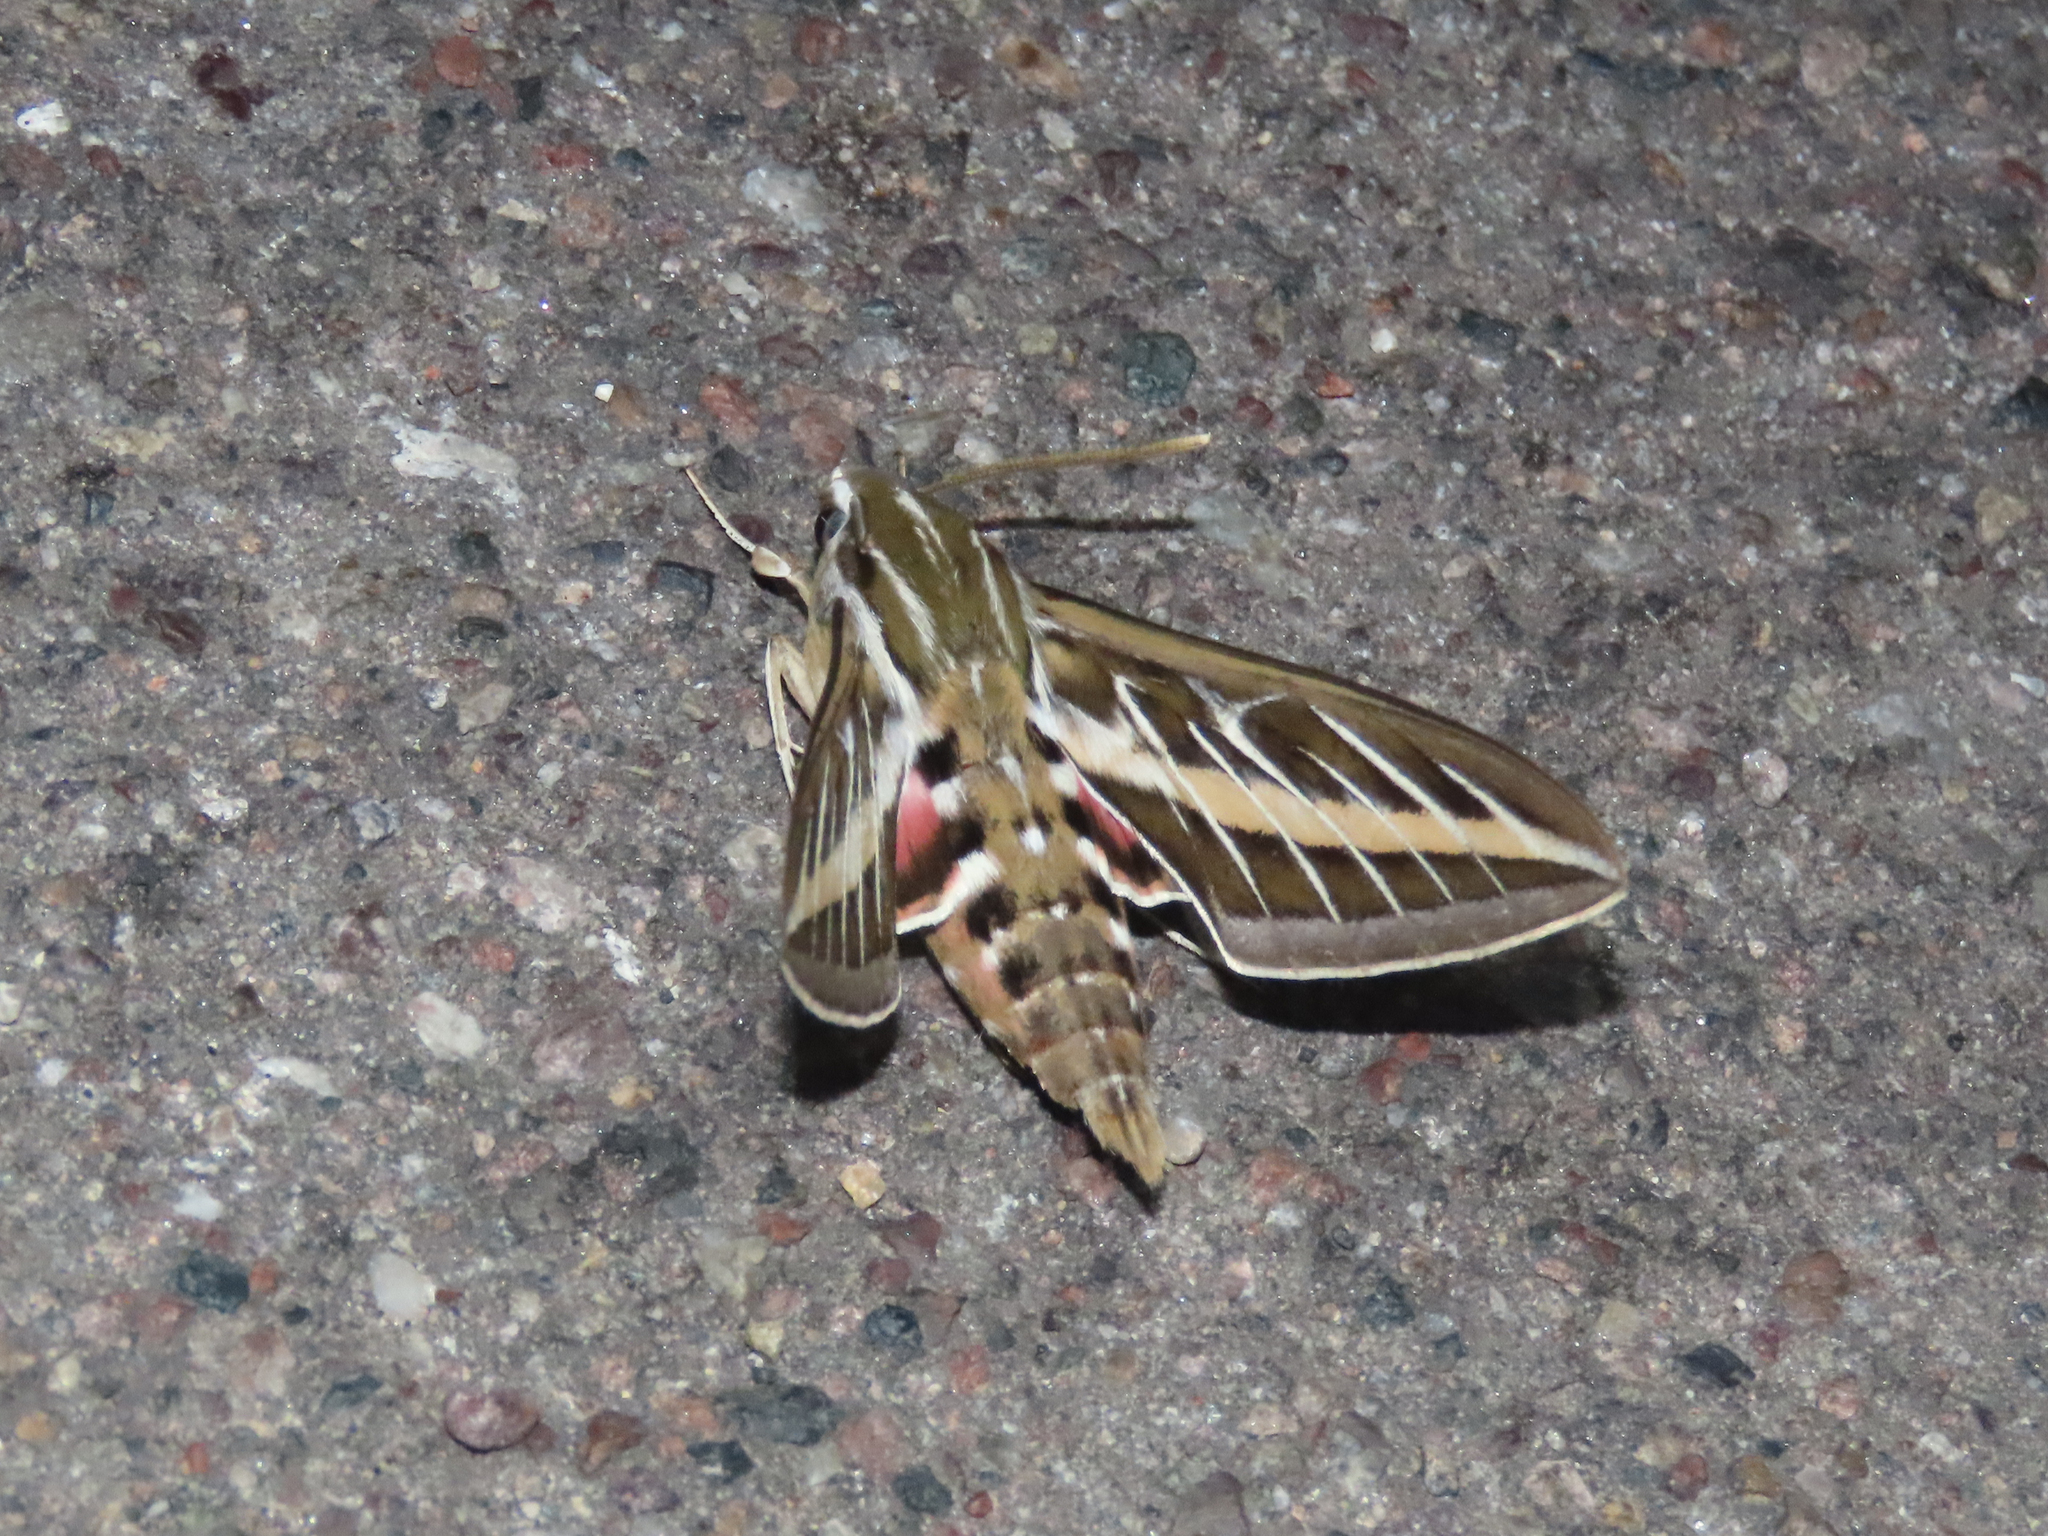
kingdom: Animalia
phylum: Arthropoda
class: Insecta
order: Lepidoptera
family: Sphingidae
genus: Hyles
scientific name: Hyles lineata
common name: White-lined sphinx
